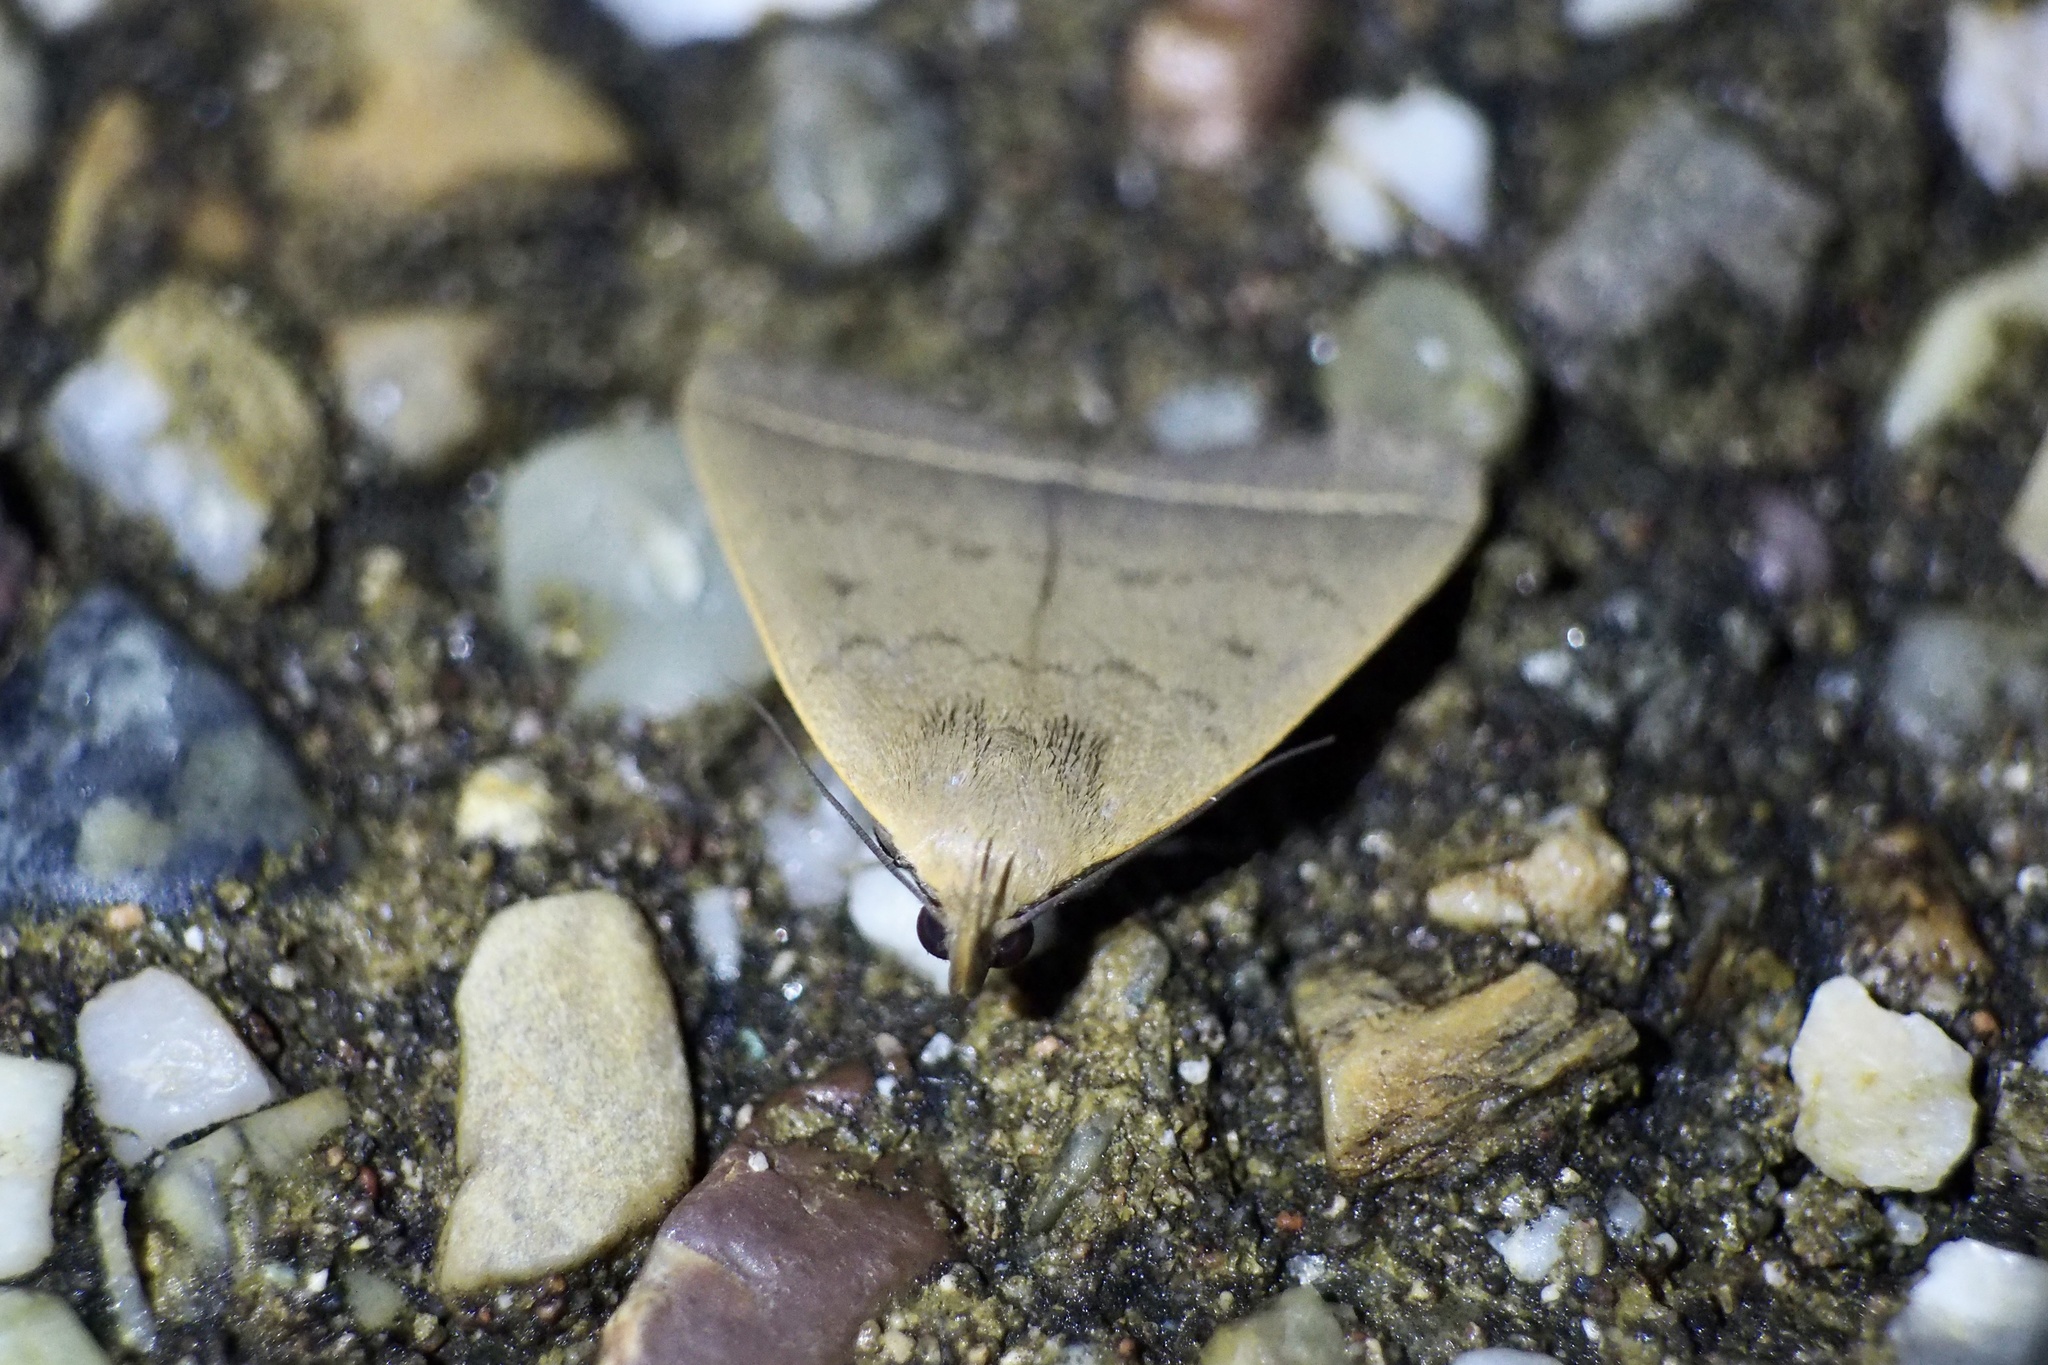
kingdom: Animalia
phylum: Arthropoda
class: Insecta
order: Lepidoptera
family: Erebidae
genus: Simplicia
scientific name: Simplicia xanthoma
